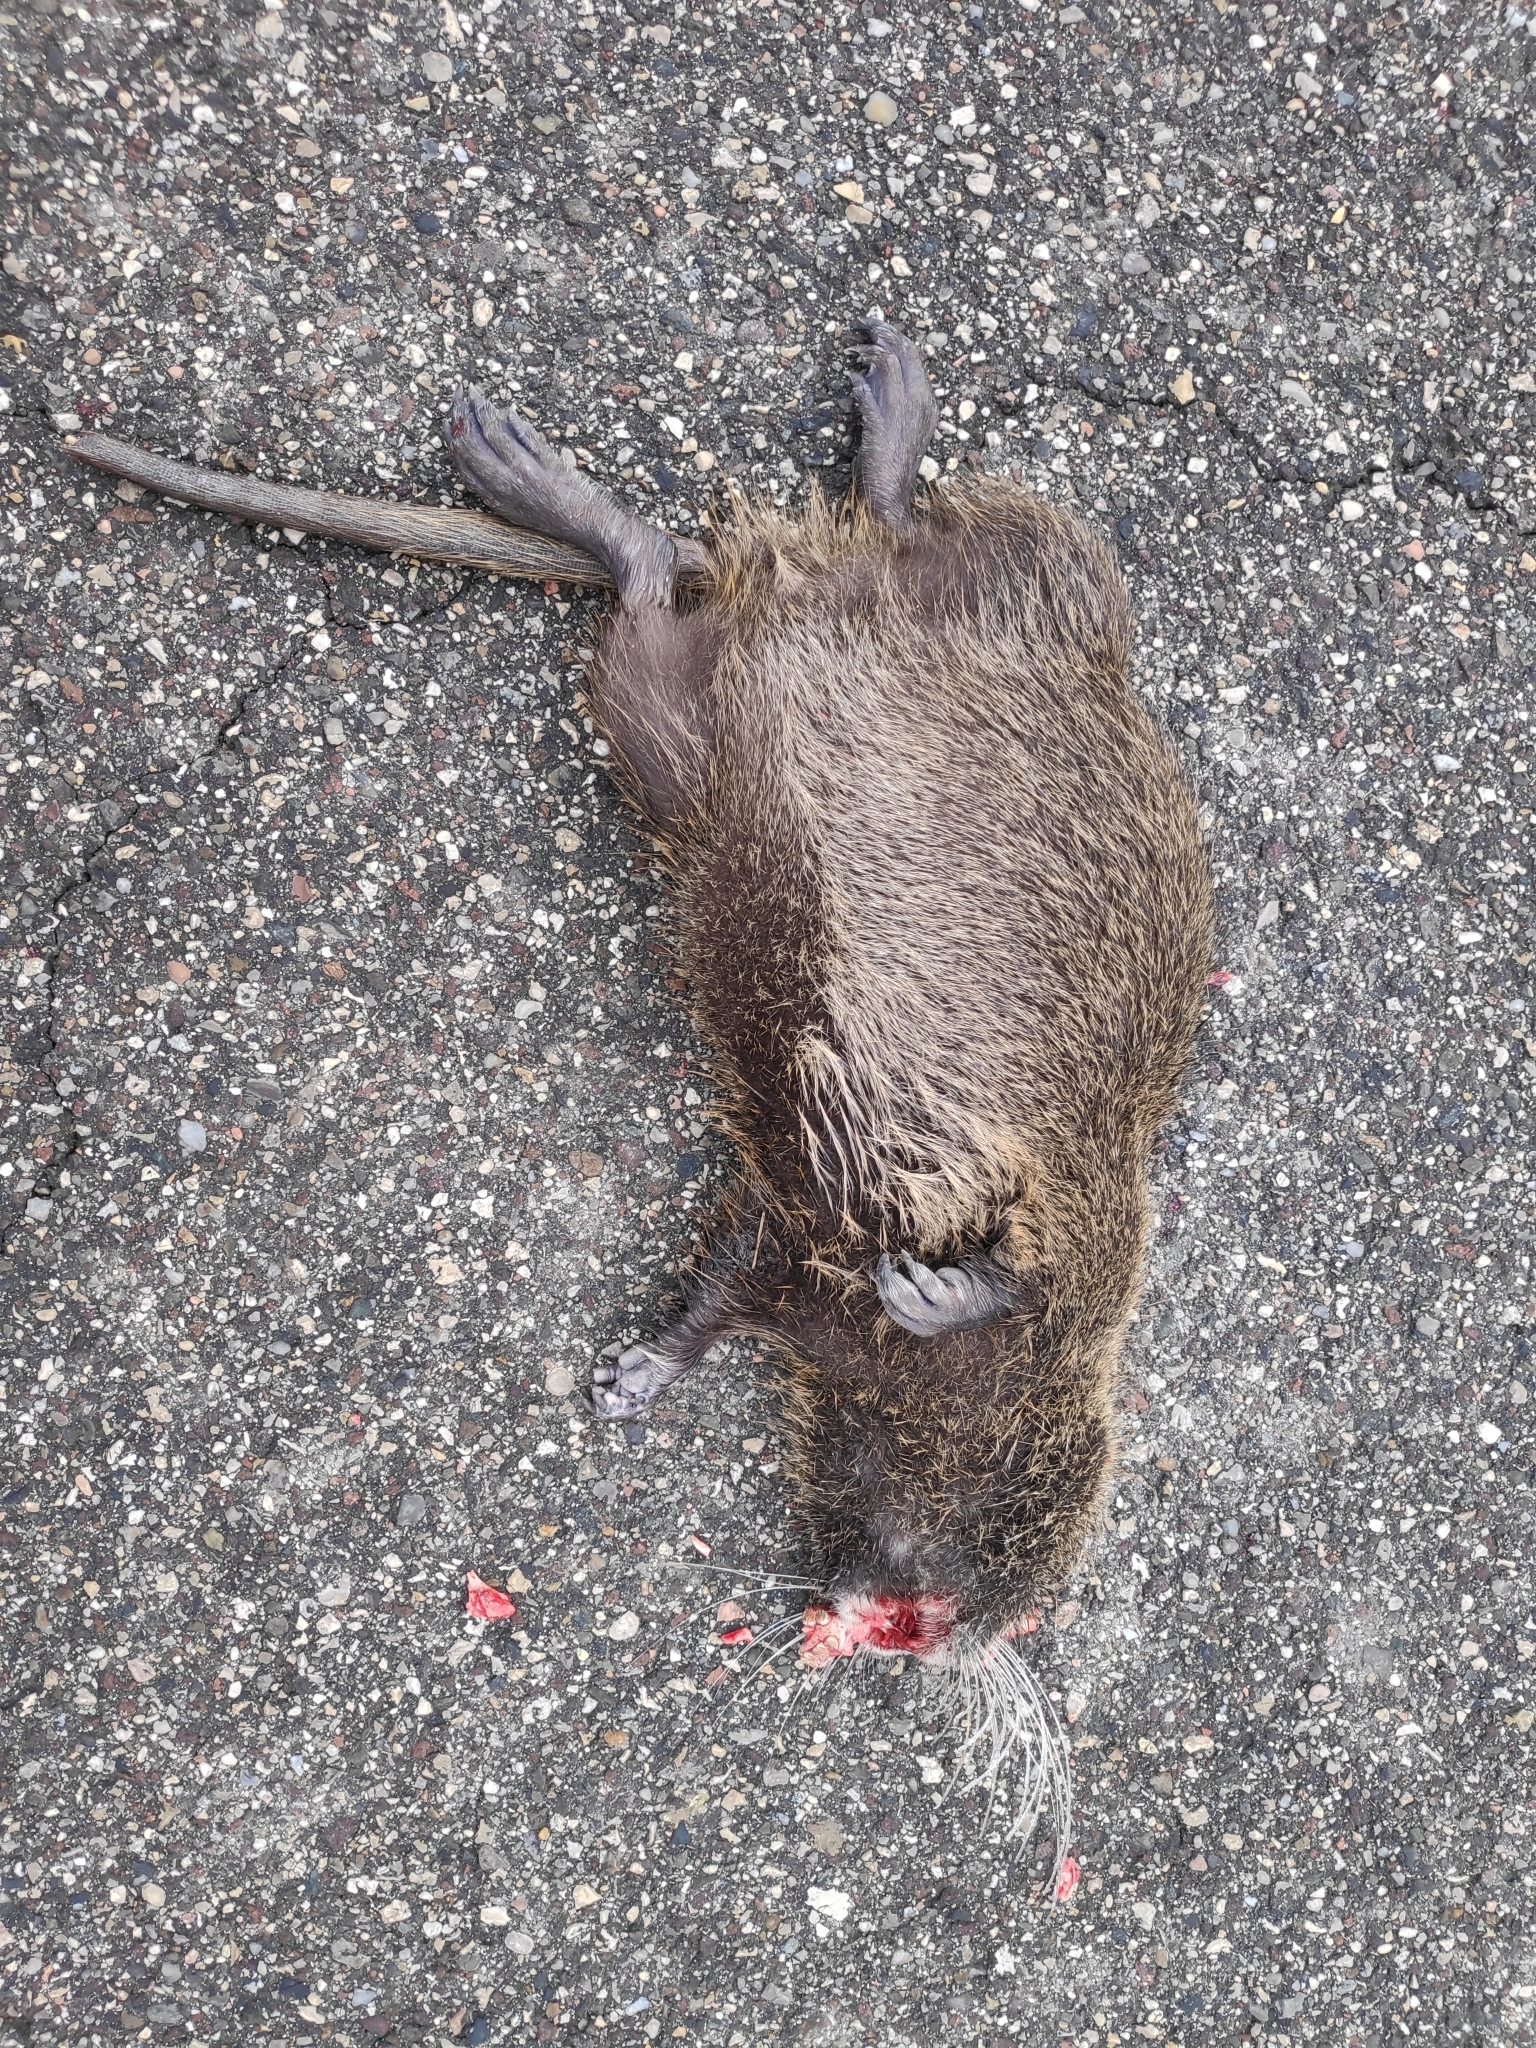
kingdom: Animalia
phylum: Chordata
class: Mammalia
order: Rodentia
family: Myocastoridae
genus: Myocastor
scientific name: Myocastor coypus
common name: Coypu
